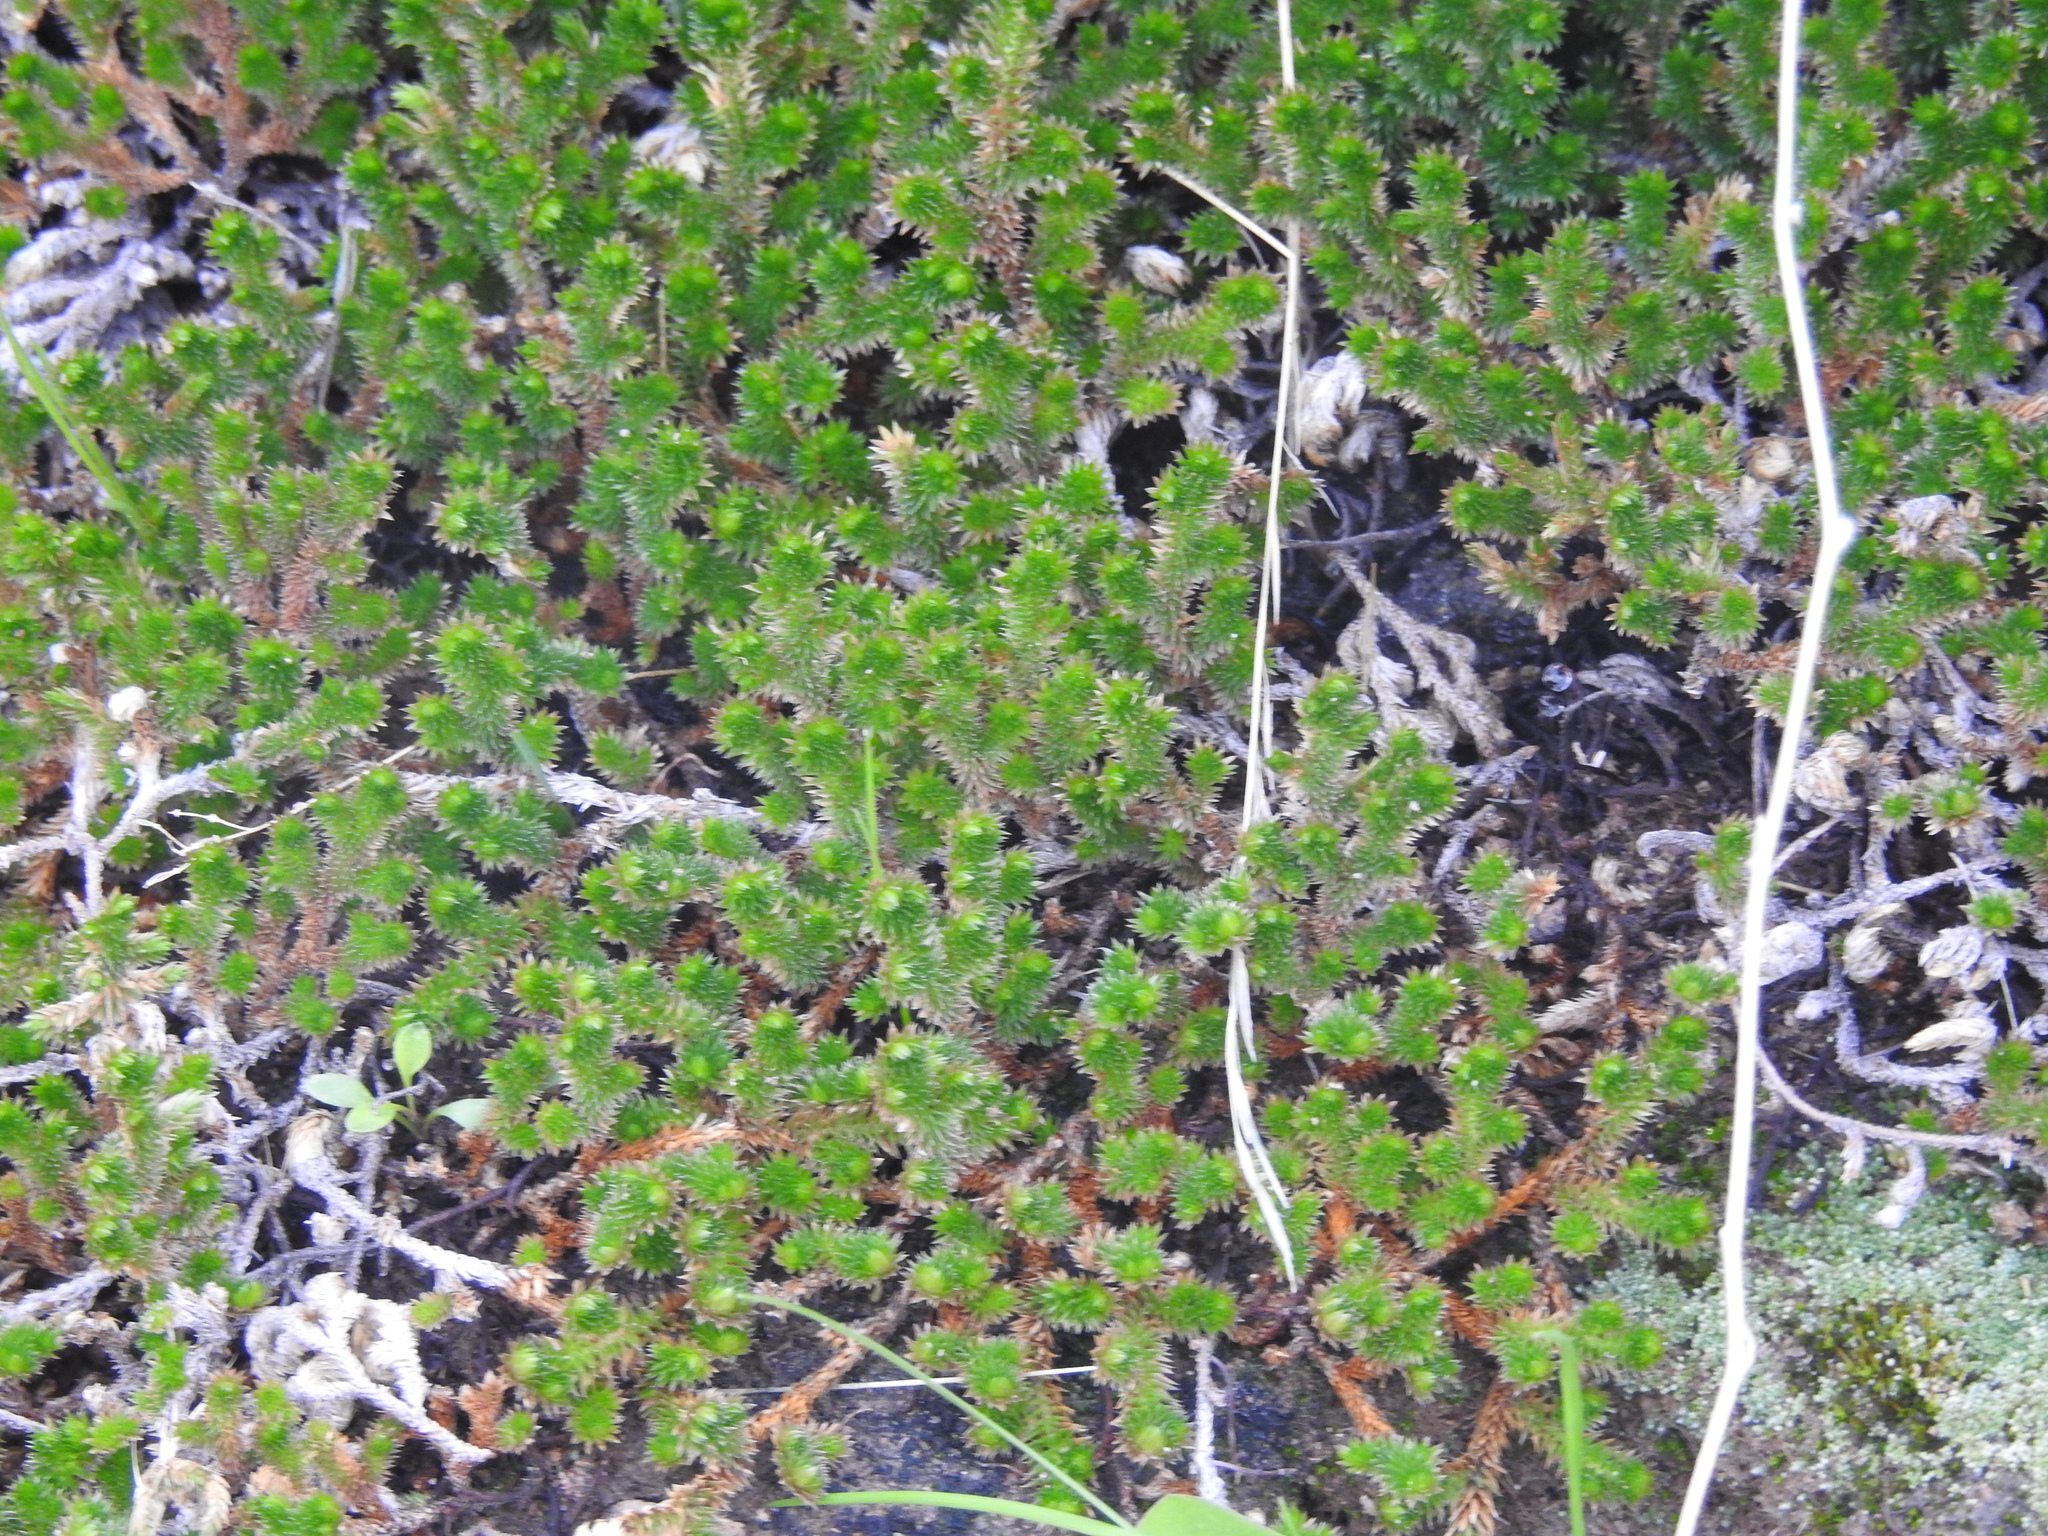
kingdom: Plantae
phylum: Tracheophyta
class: Lycopodiopsida
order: Selaginellales
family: Selaginellaceae
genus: Selaginella
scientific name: Selaginella arizonica
